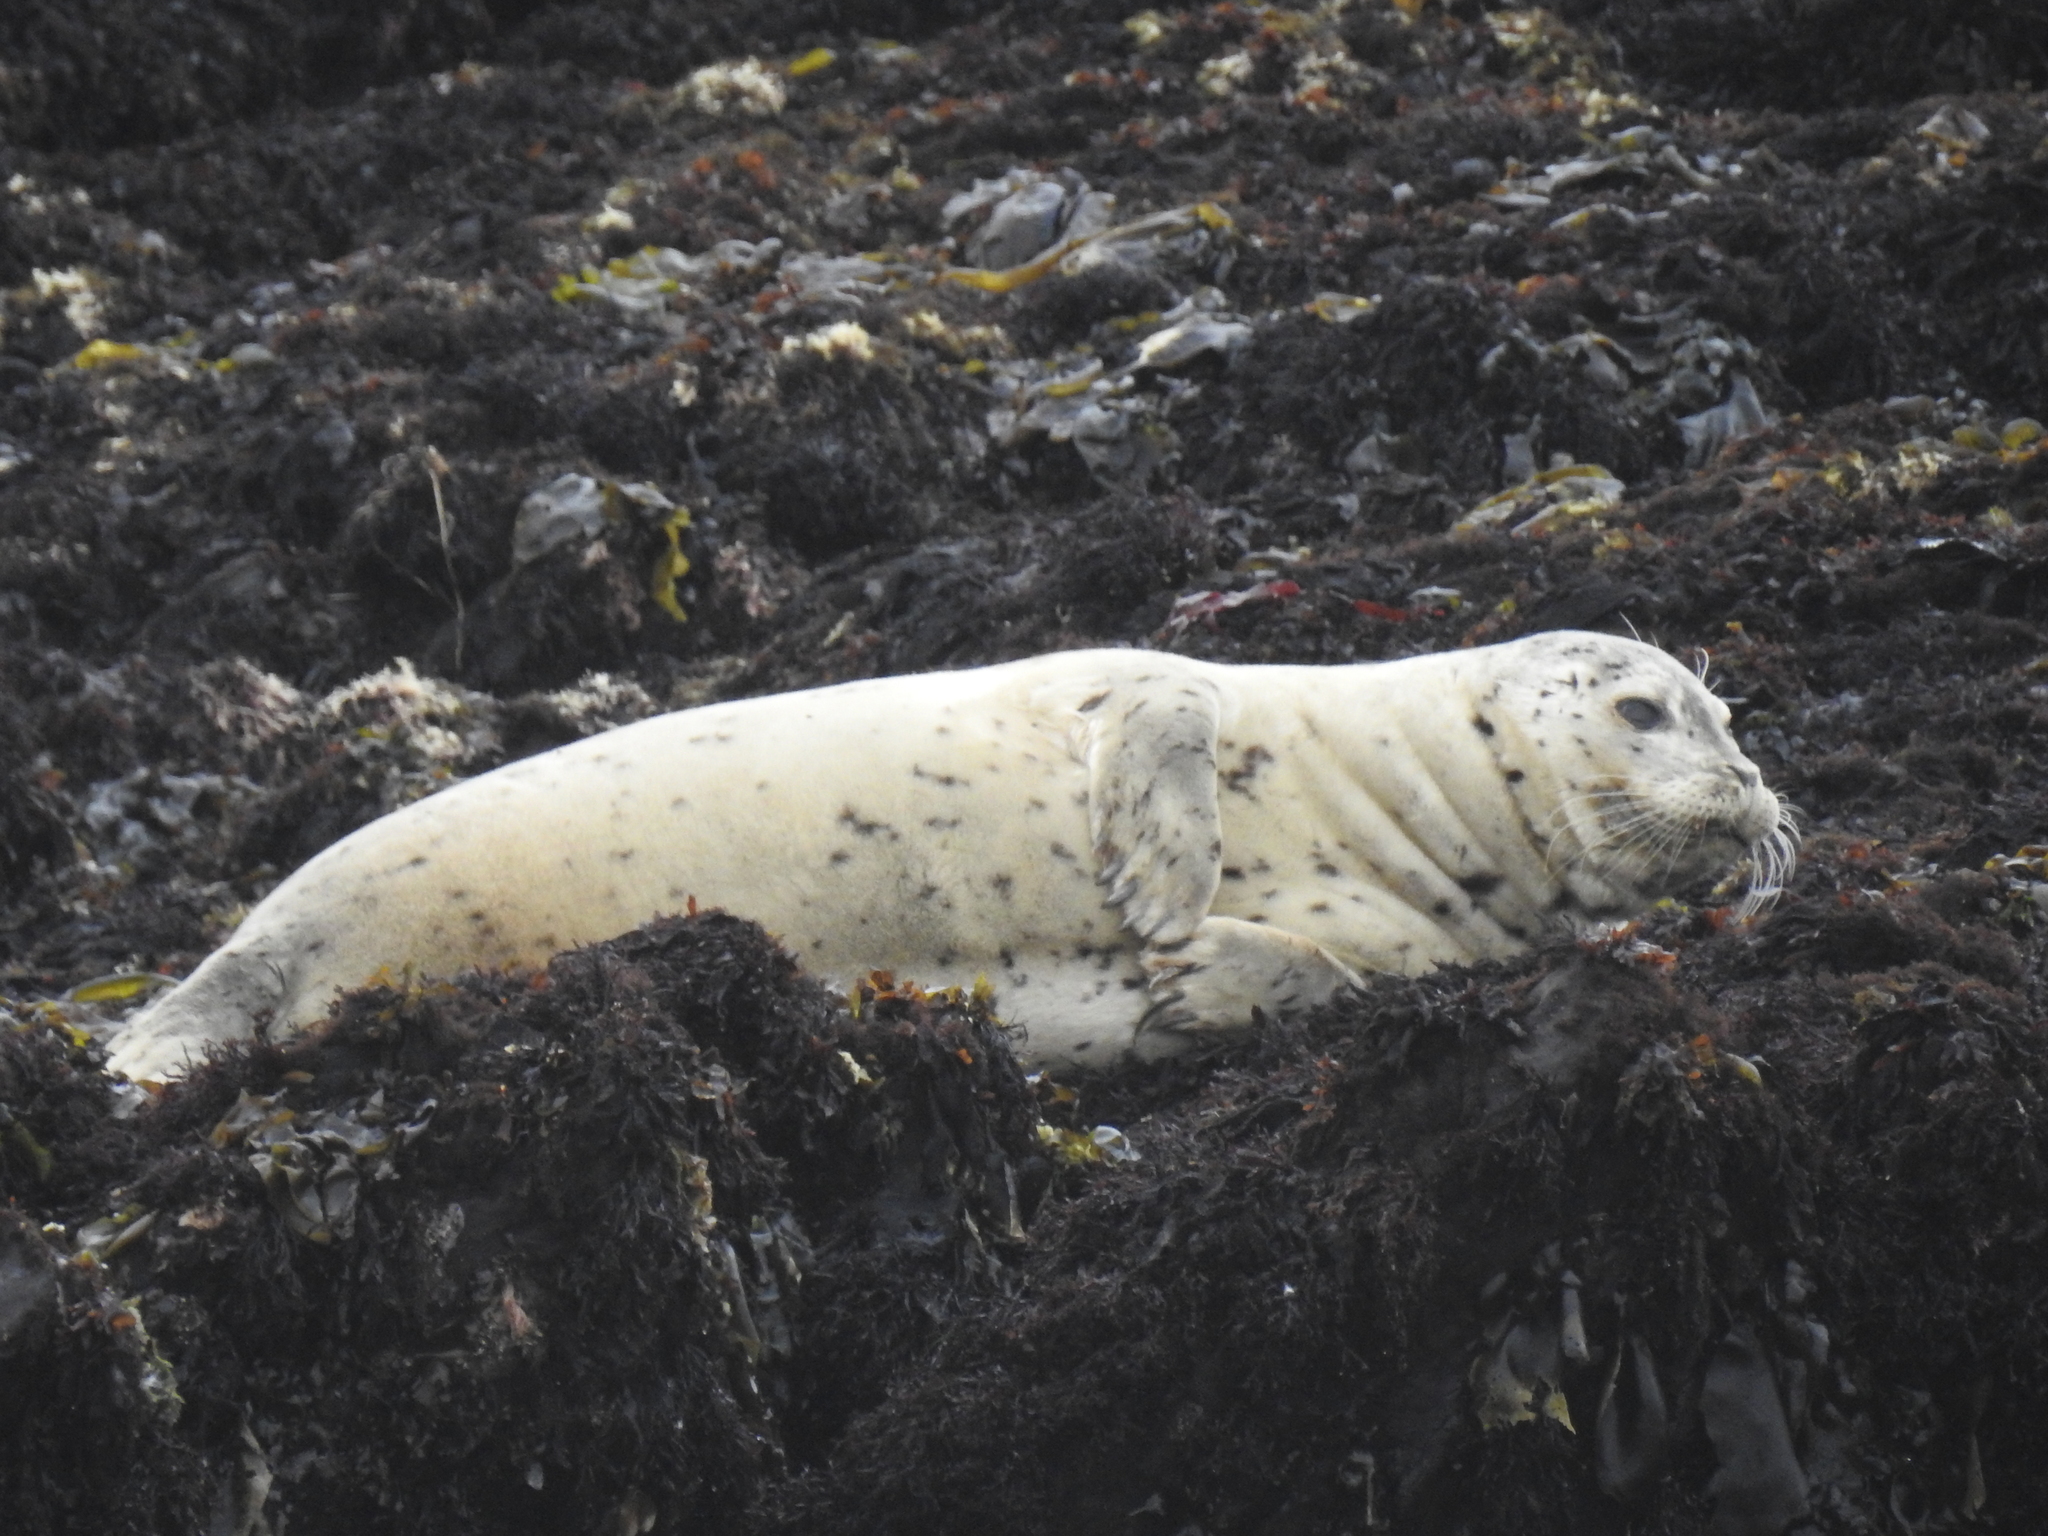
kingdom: Animalia
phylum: Chordata
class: Mammalia
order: Carnivora
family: Phocidae
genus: Phoca
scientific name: Phoca vitulina
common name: Harbor seal
